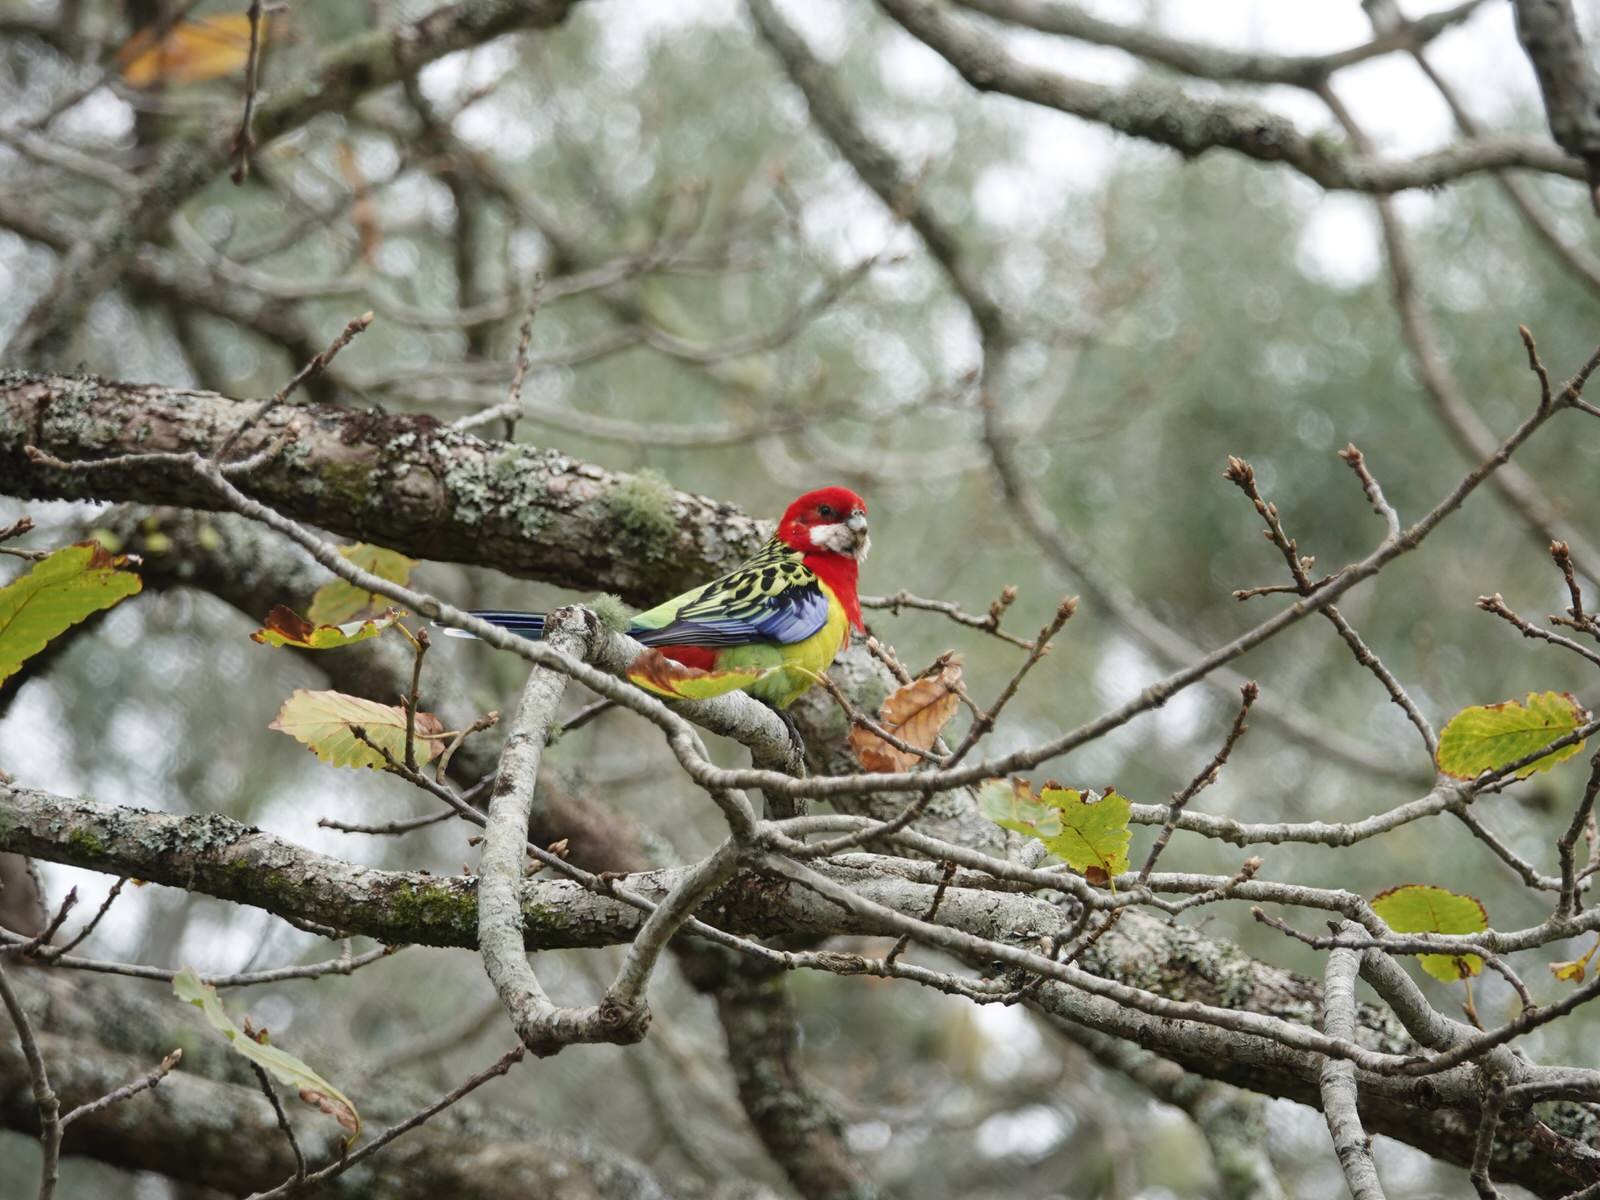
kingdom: Animalia
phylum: Chordata
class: Aves
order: Psittaciformes
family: Psittacidae
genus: Platycercus
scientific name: Platycercus eximius
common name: Eastern rosella
